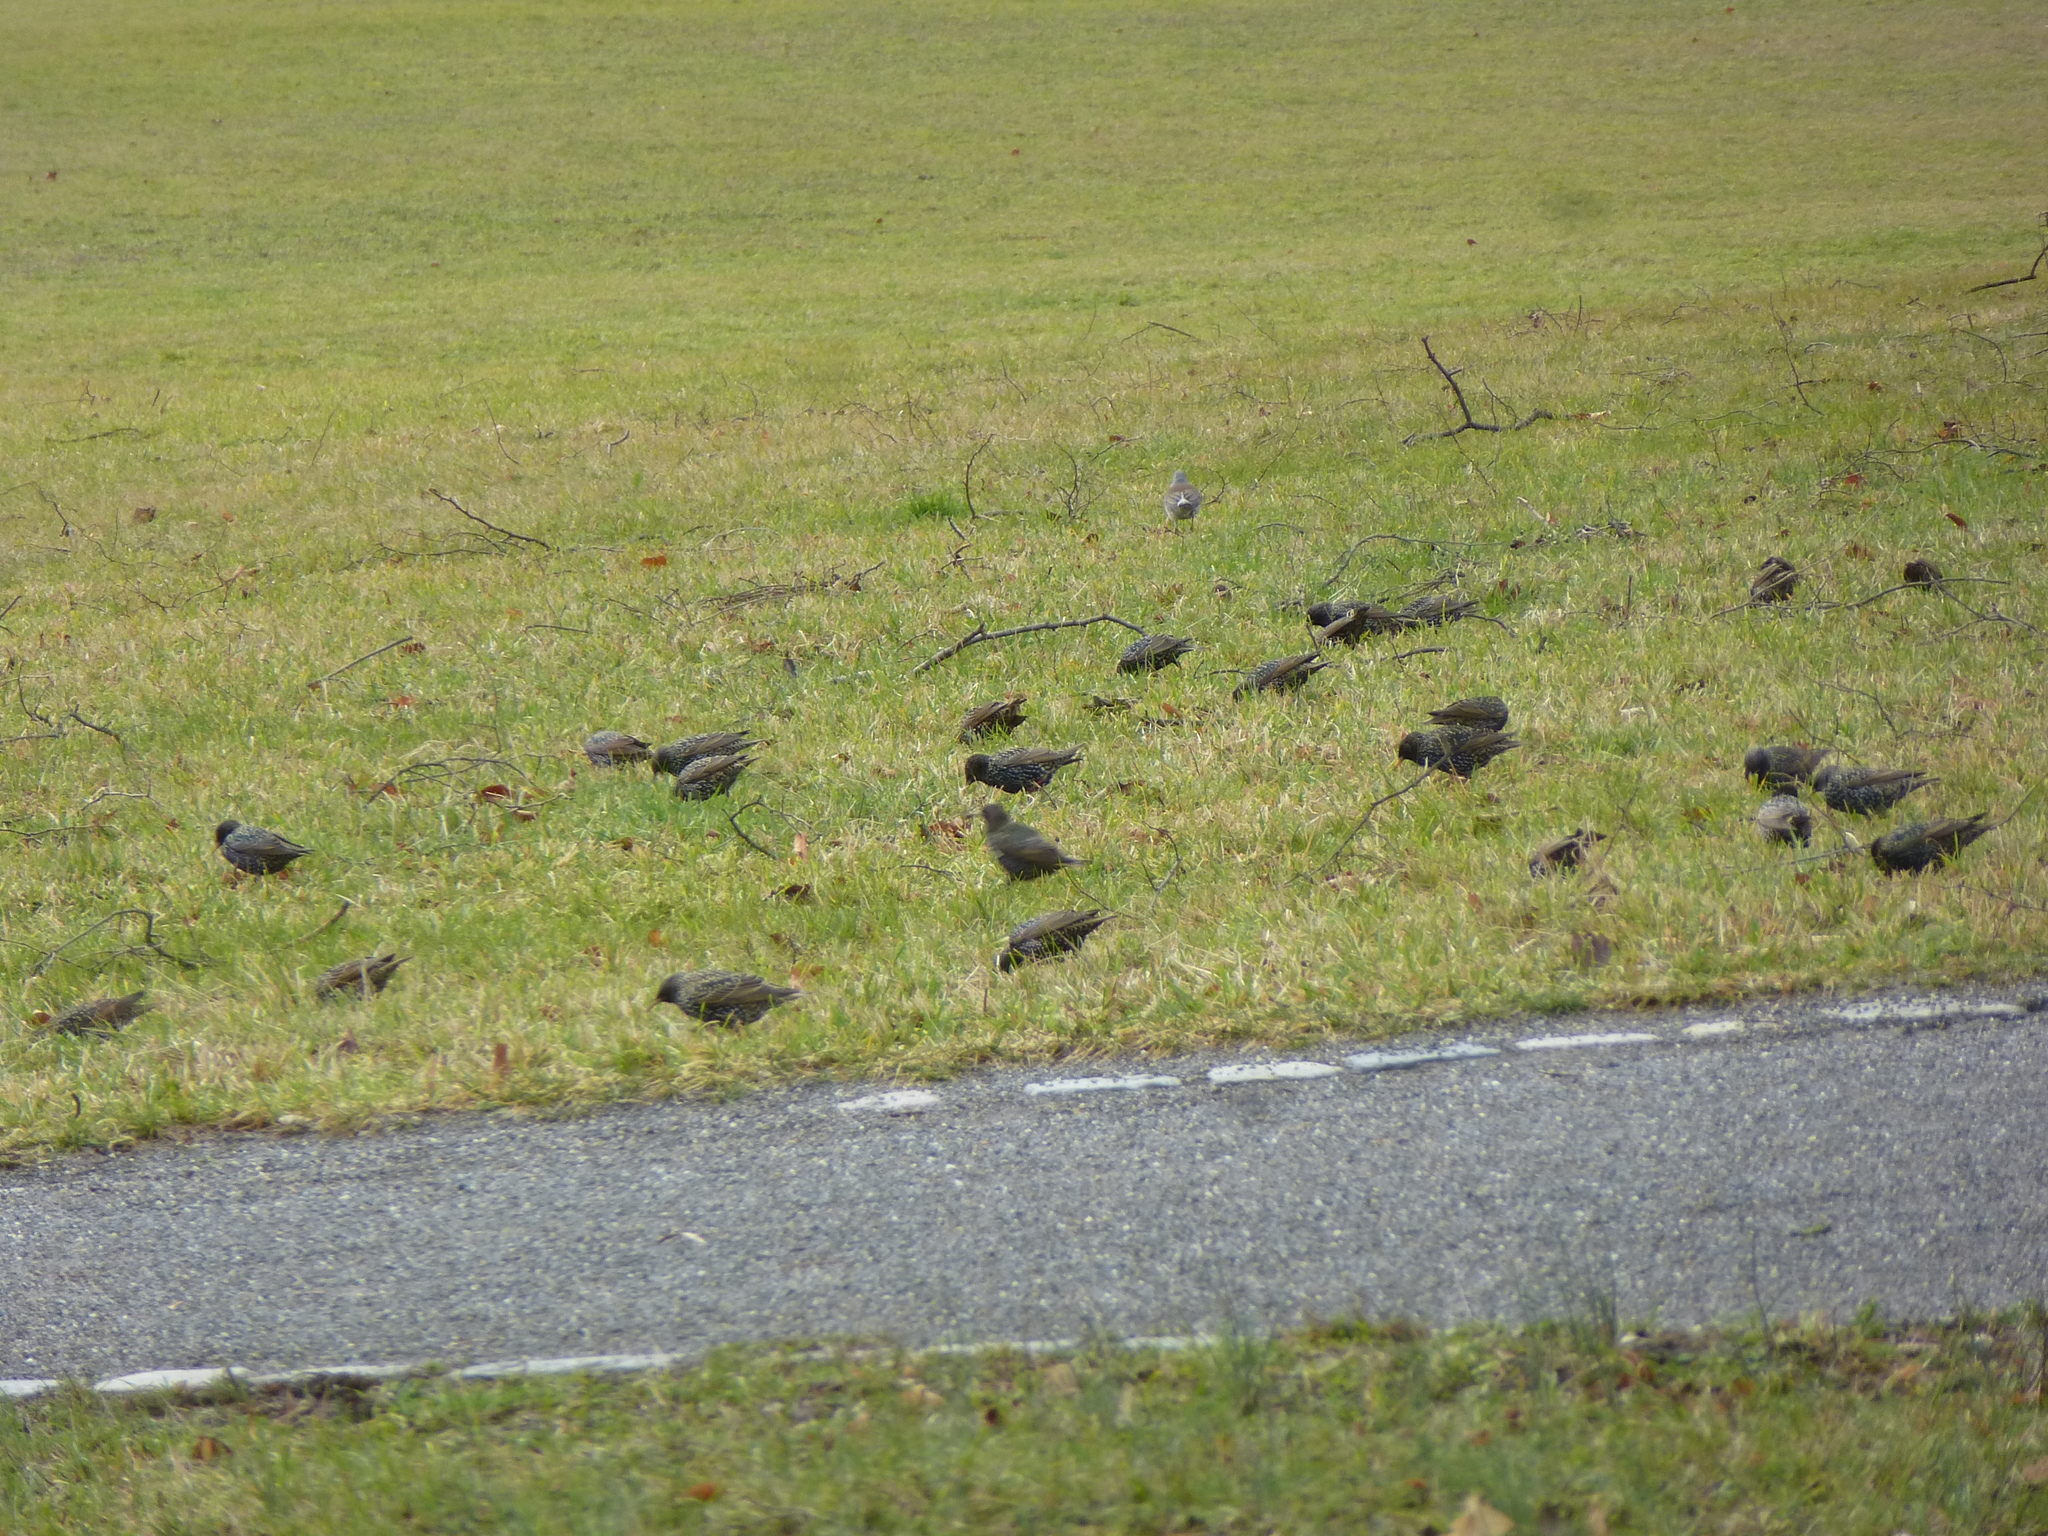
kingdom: Animalia
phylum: Chordata
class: Aves
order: Passeriformes
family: Sturnidae
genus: Sturnus
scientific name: Sturnus vulgaris
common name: Common starling
